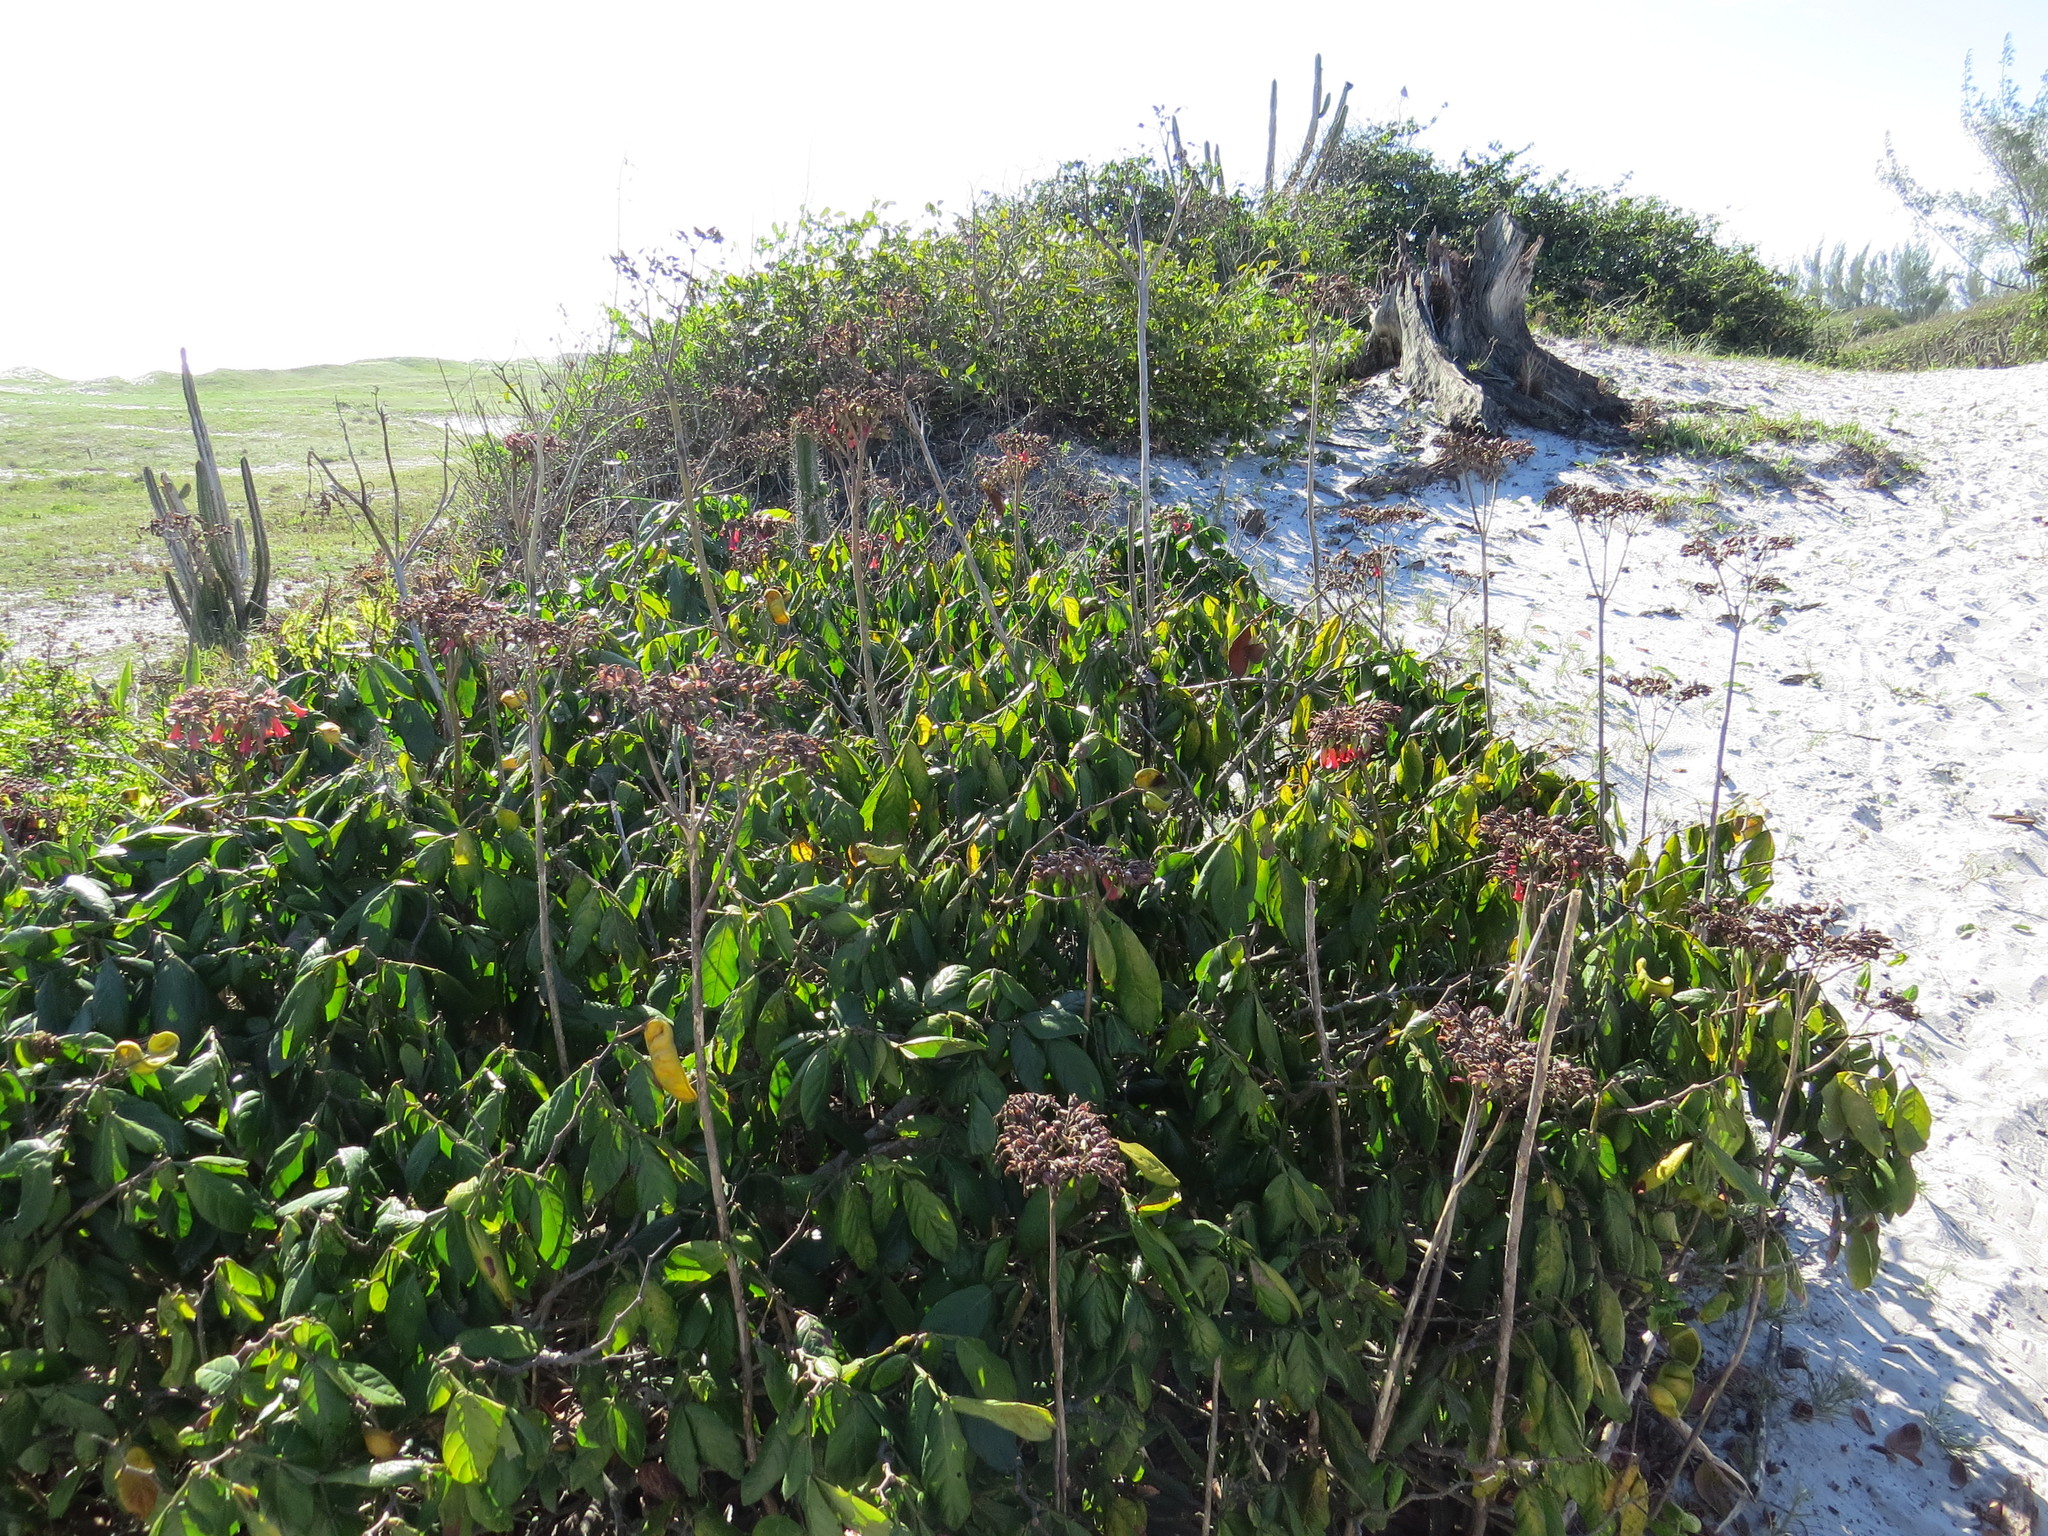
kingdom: Plantae
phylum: Tracheophyta
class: Magnoliopsida
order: Saxifragales
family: Crassulaceae
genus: Kalanchoe
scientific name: Kalanchoe houghtonii
